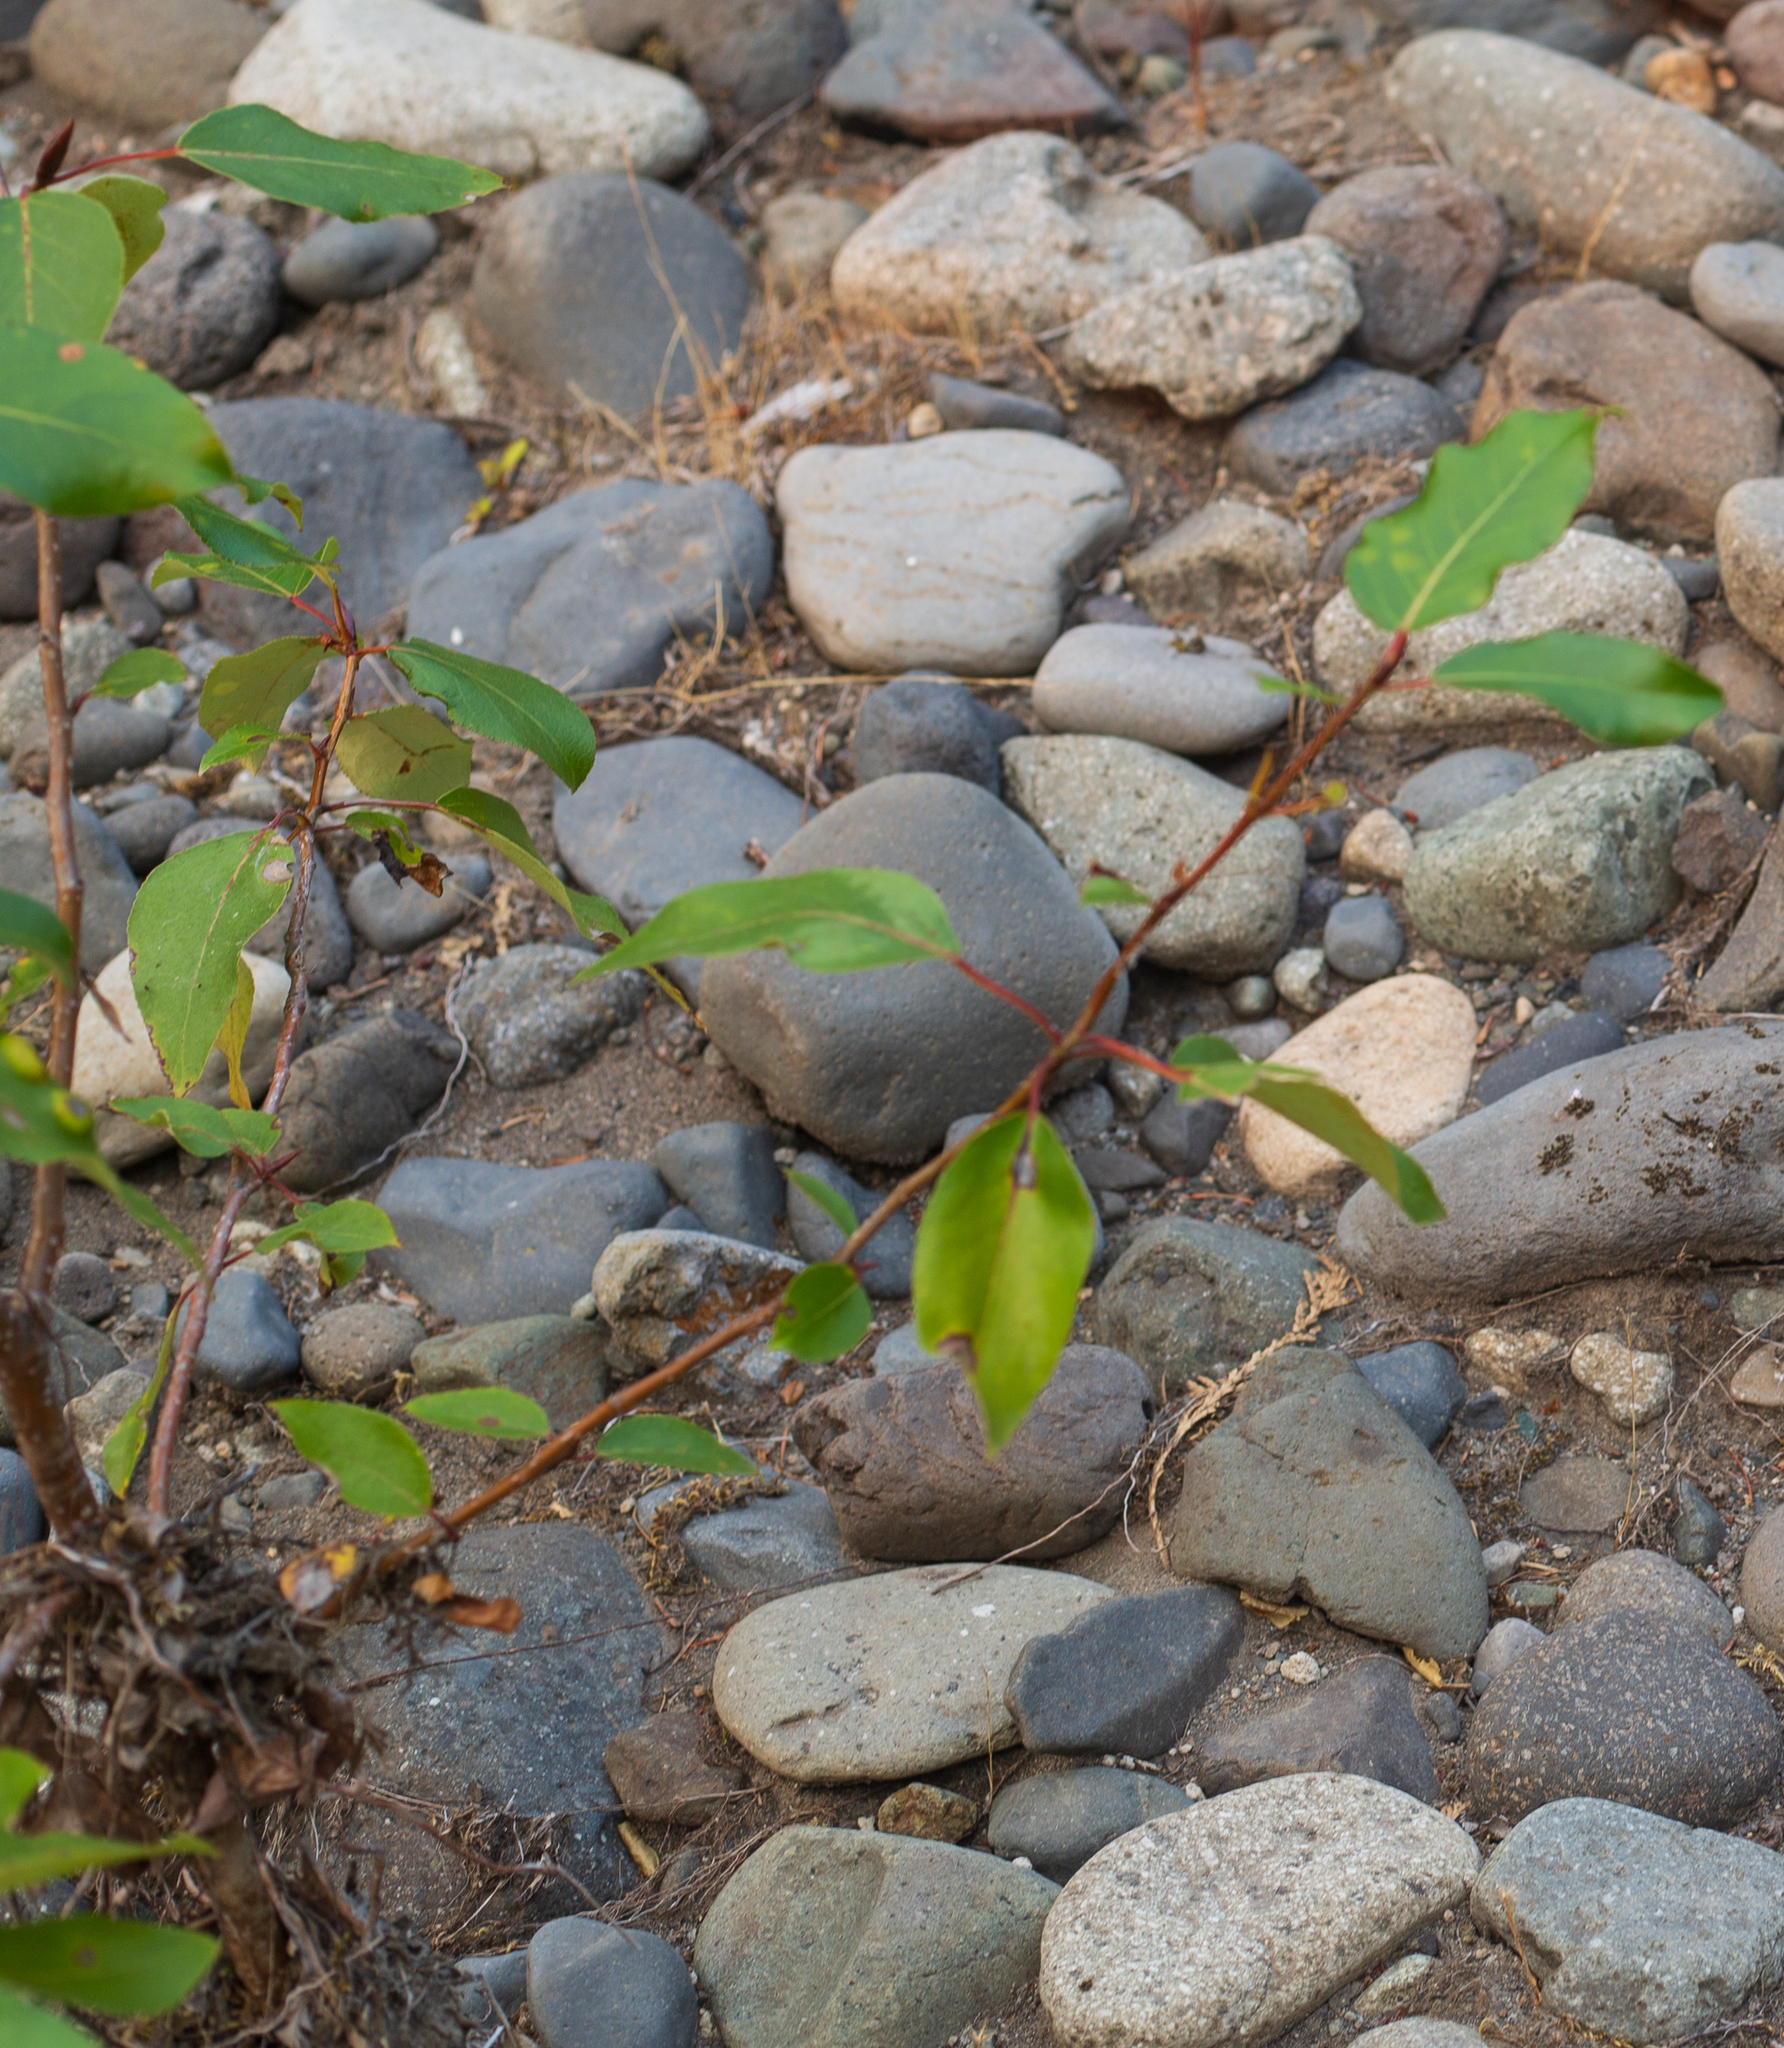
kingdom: Plantae
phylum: Tracheophyta
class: Magnoliopsida
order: Malpighiales
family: Salicaceae
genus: Populus
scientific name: Populus trichocarpa
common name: Black cottonwood
